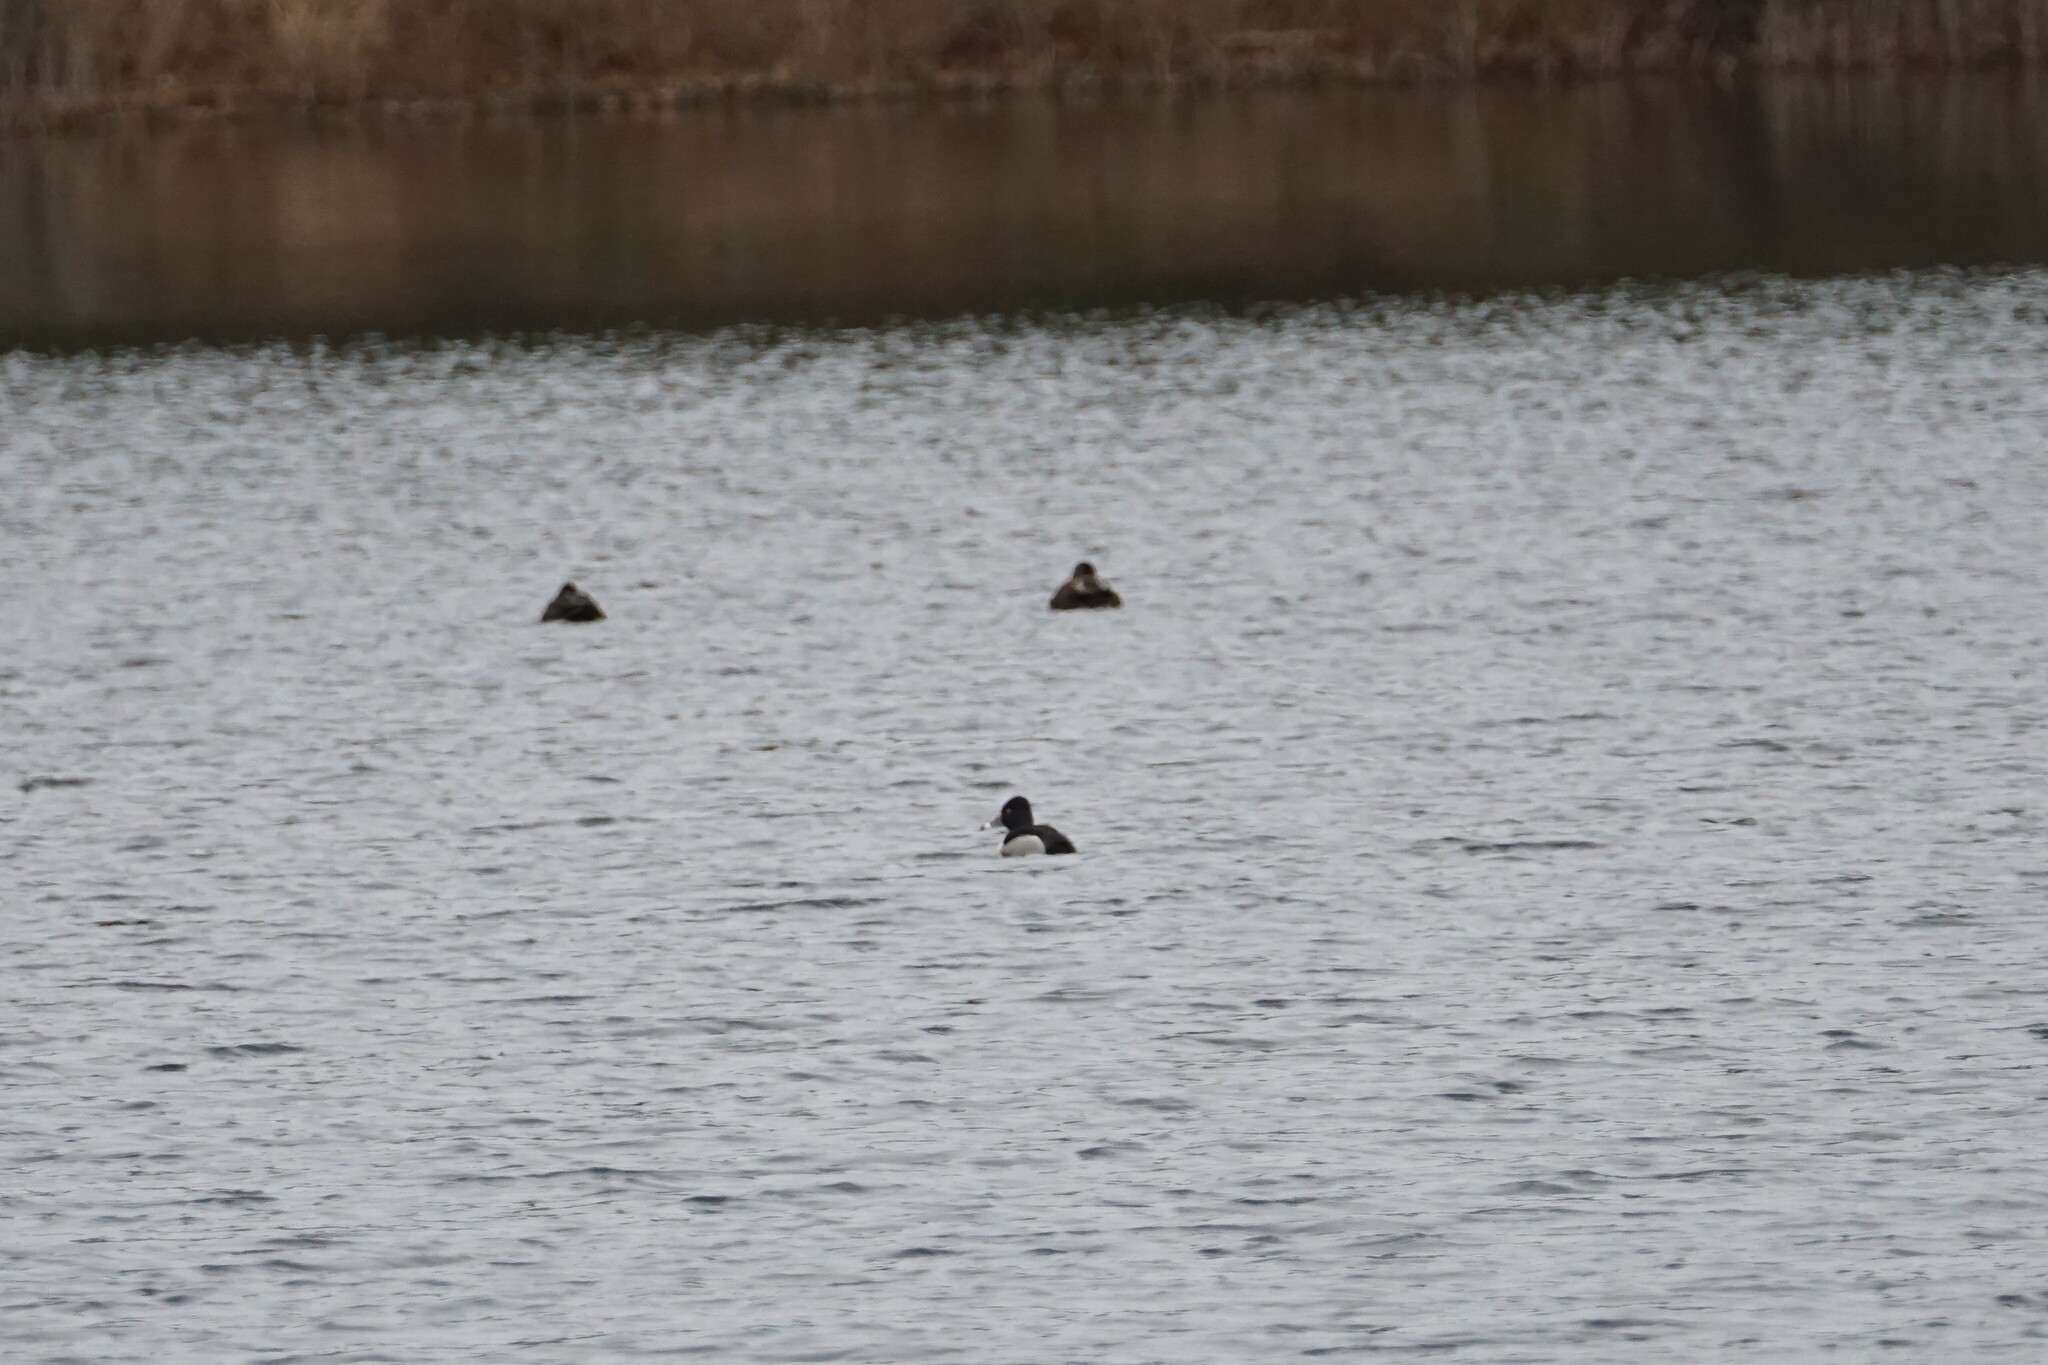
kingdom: Animalia
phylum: Chordata
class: Aves
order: Anseriformes
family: Anatidae
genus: Aythya
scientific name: Aythya collaris
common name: Ring-necked duck
